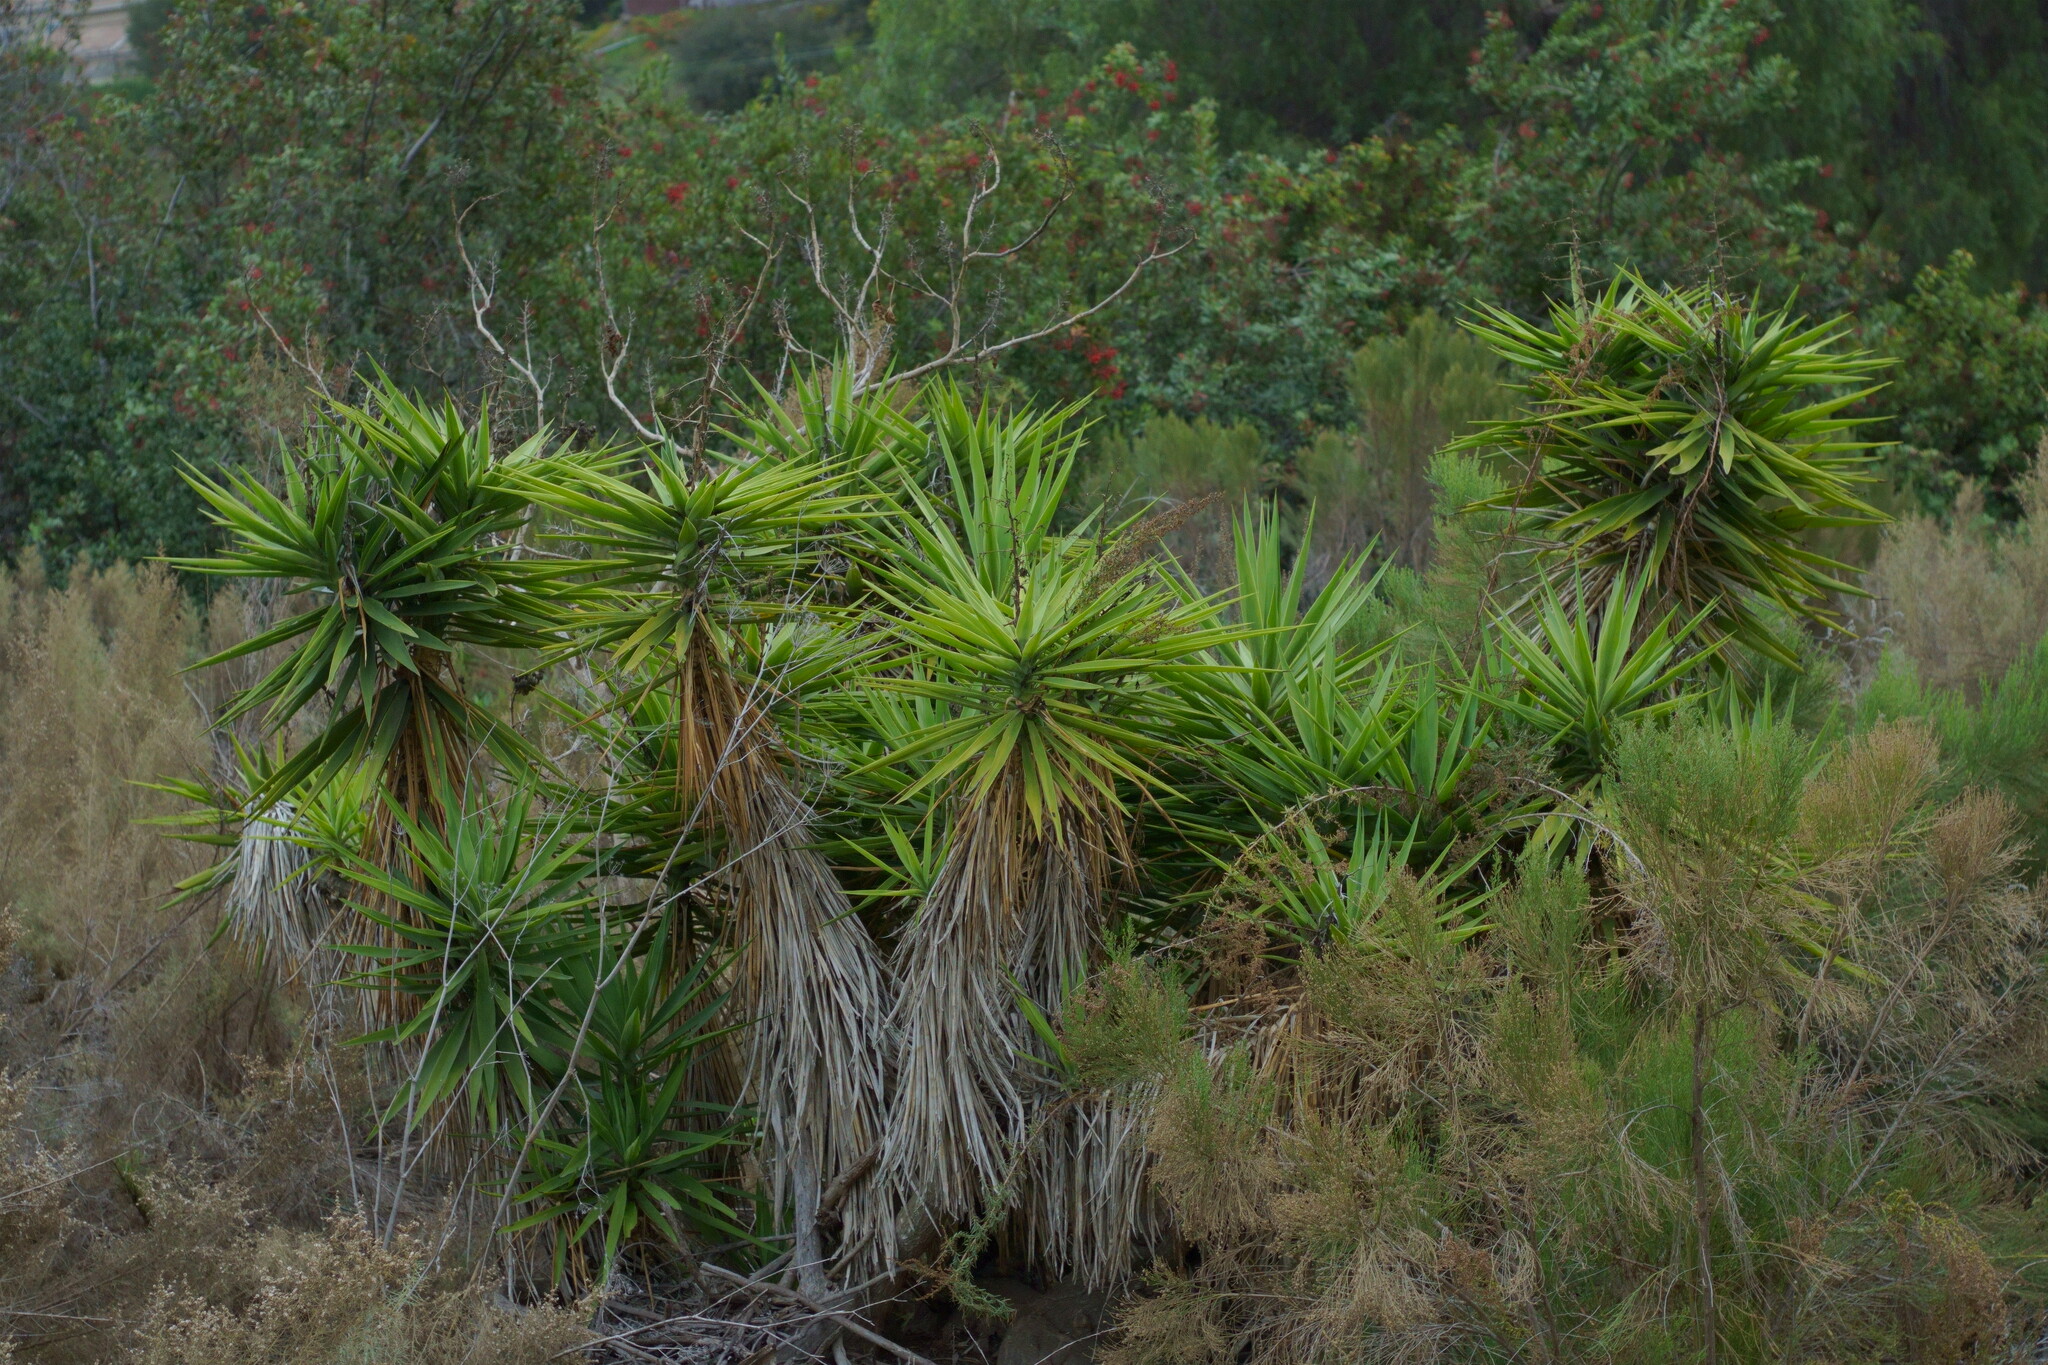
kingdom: Plantae
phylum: Tracheophyta
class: Liliopsida
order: Asparagales
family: Asparagaceae
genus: Yucca
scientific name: Yucca gigantea
